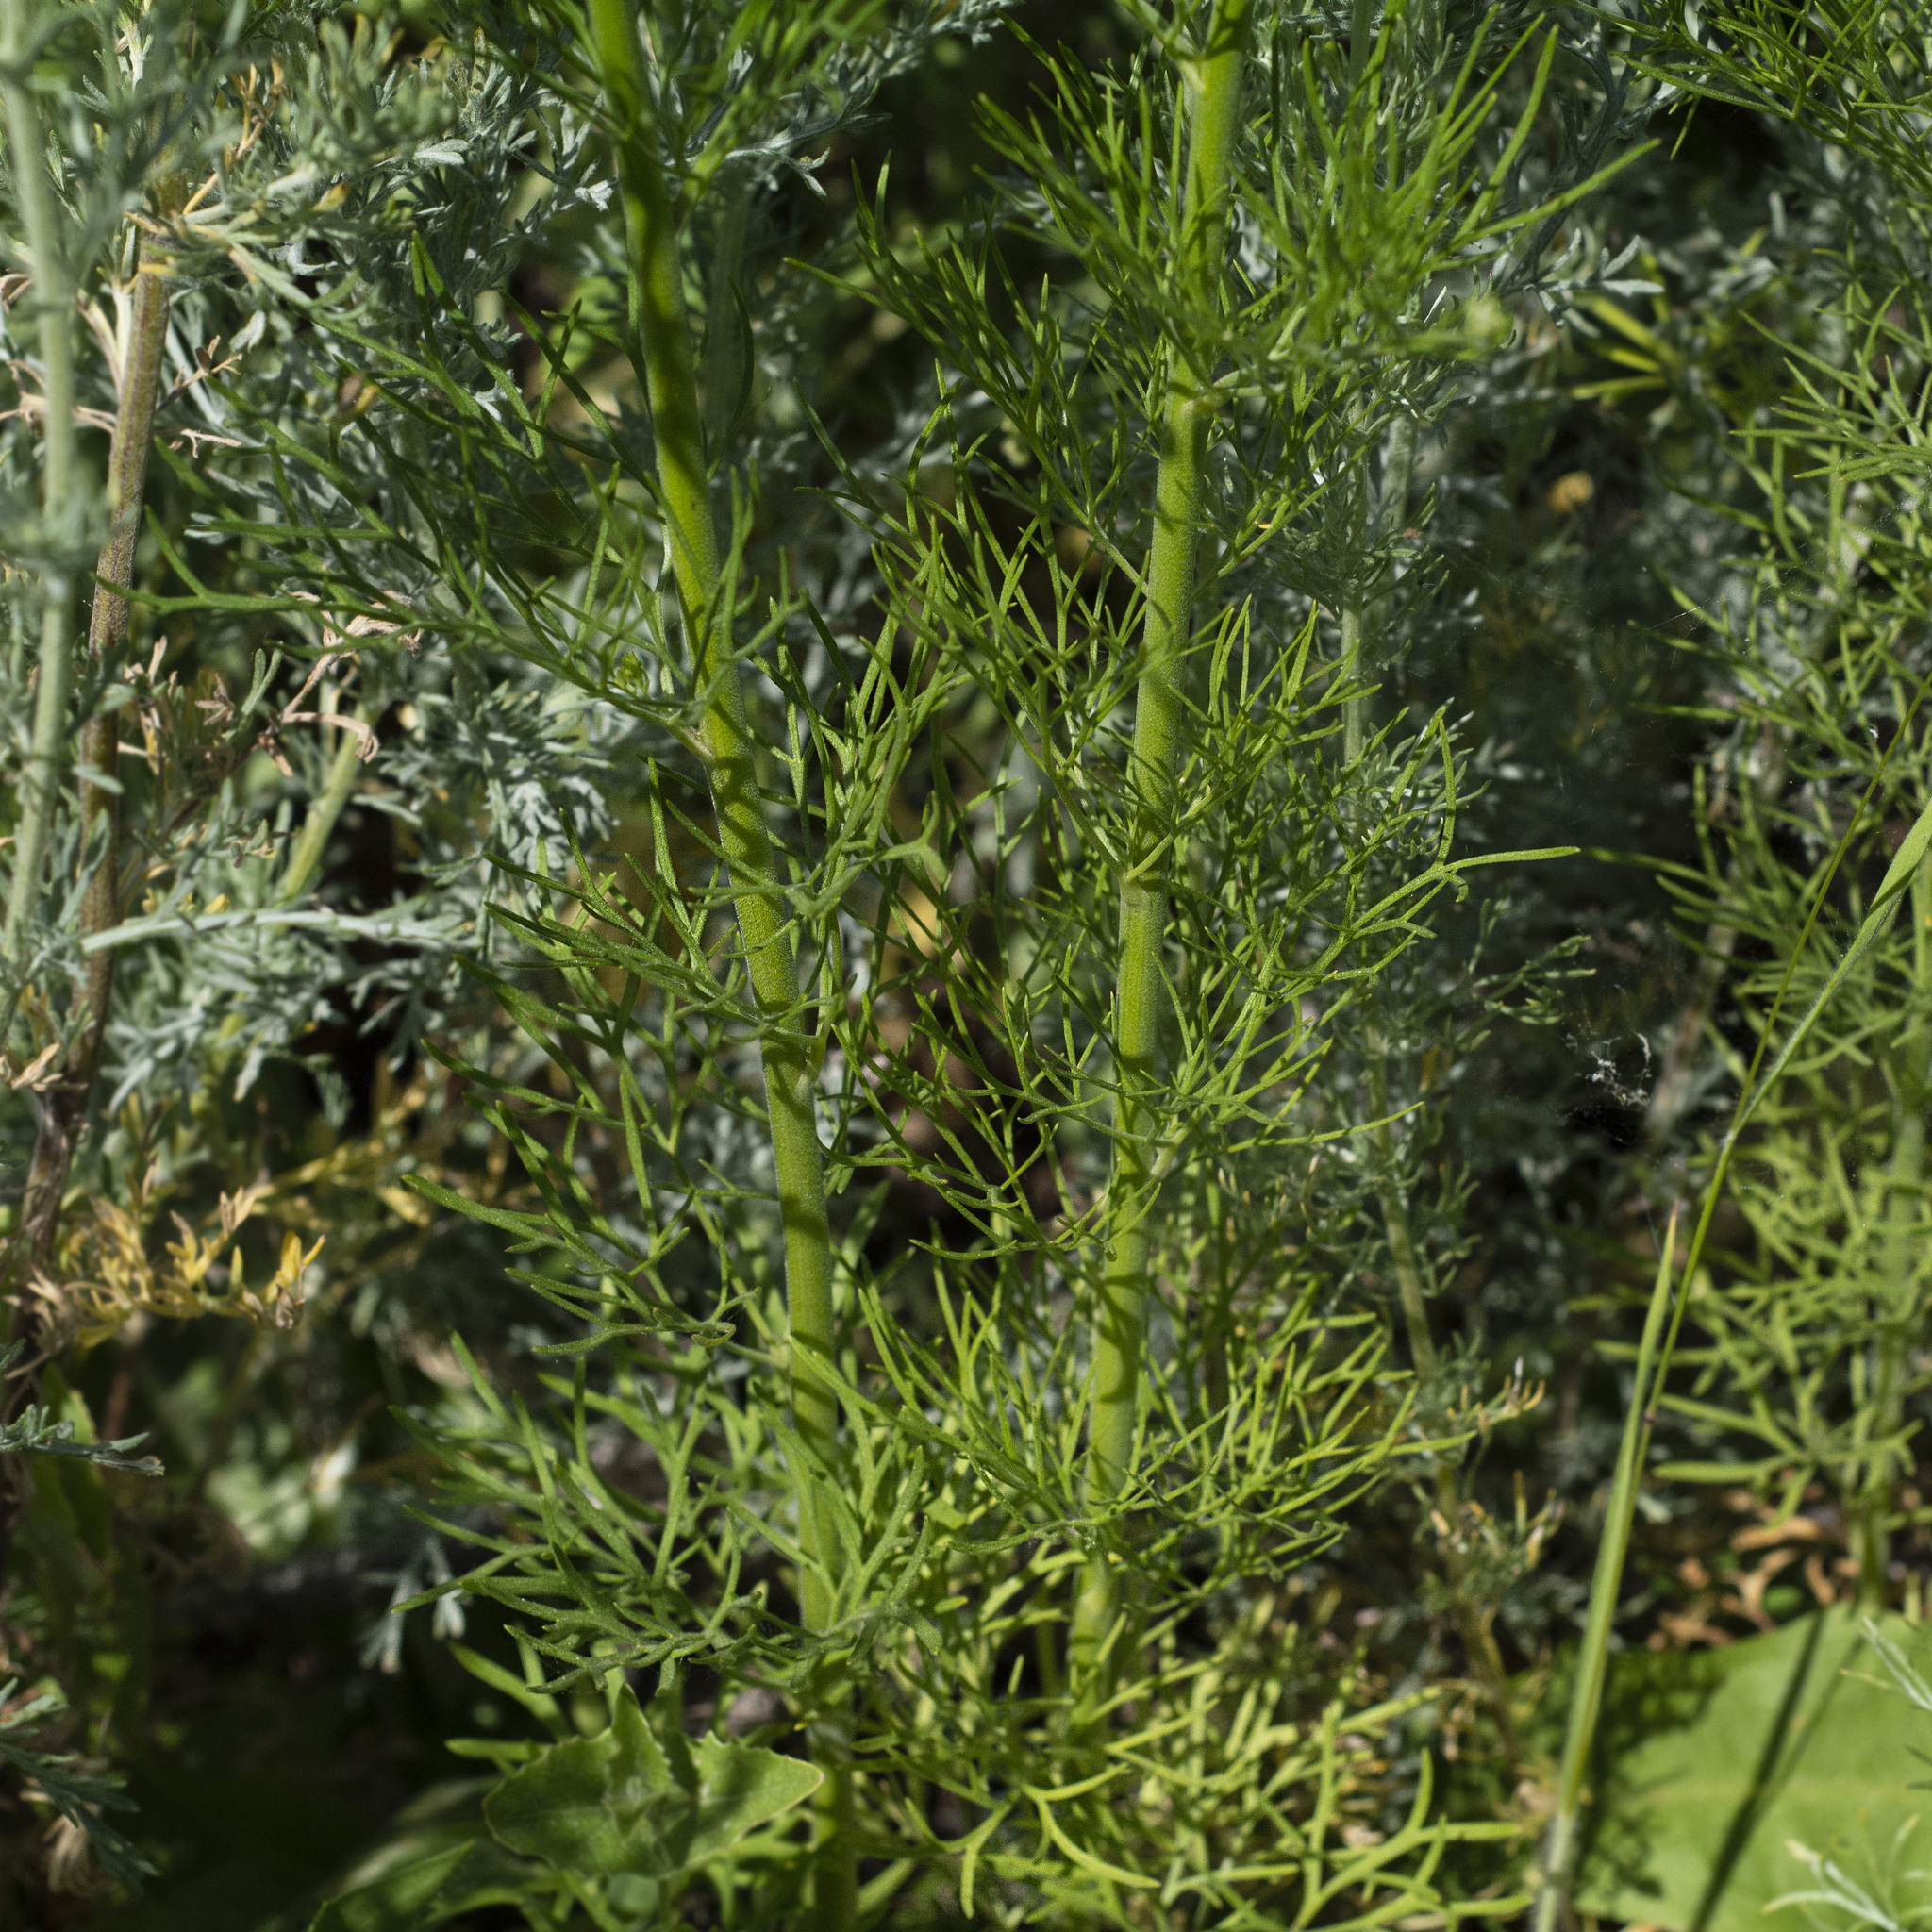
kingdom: Plantae
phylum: Tracheophyta
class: Magnoliopsida
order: Ranunculales
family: Ranunculaceae
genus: Delphinium
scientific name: Delphinium consolida
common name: Branching larkspur
